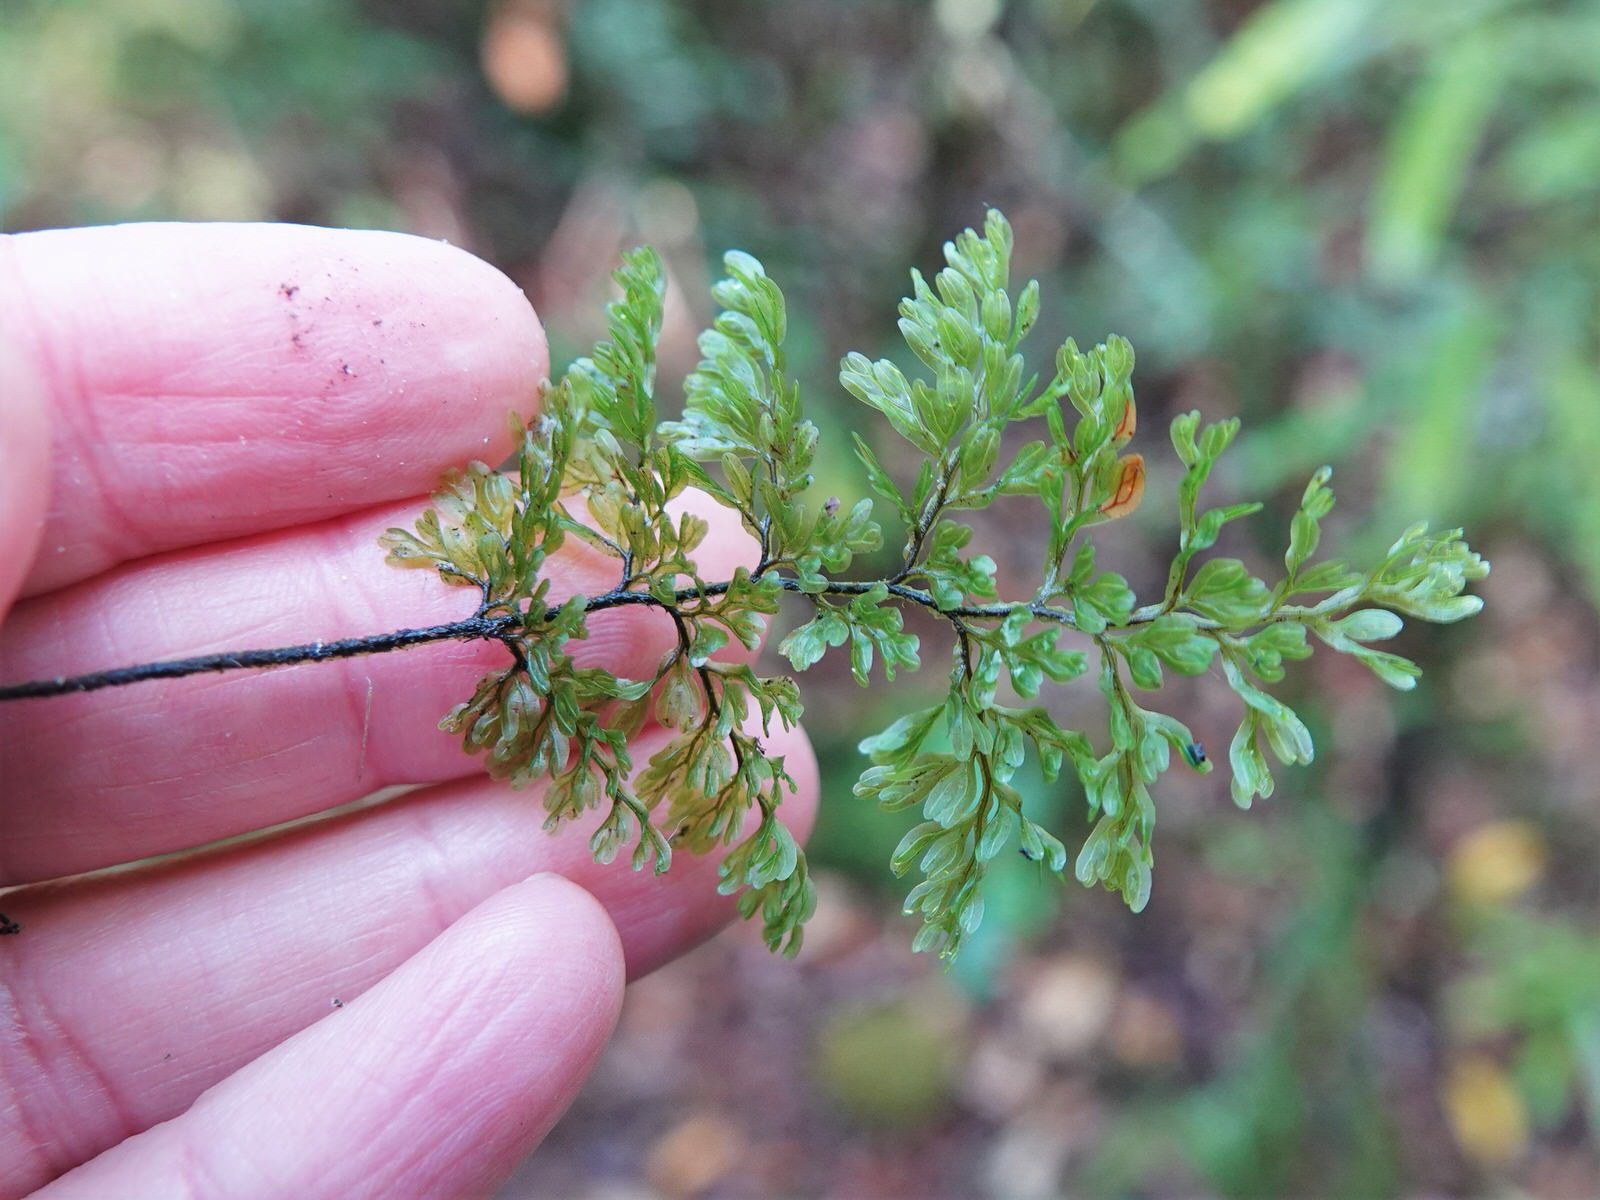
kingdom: Plantae
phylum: Tracheophyta
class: Polypodiopsida
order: Hymenophyllales
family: Hymenophyllaceae
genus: Hymenophyllum
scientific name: Hymenophyllum sanguinolentum
